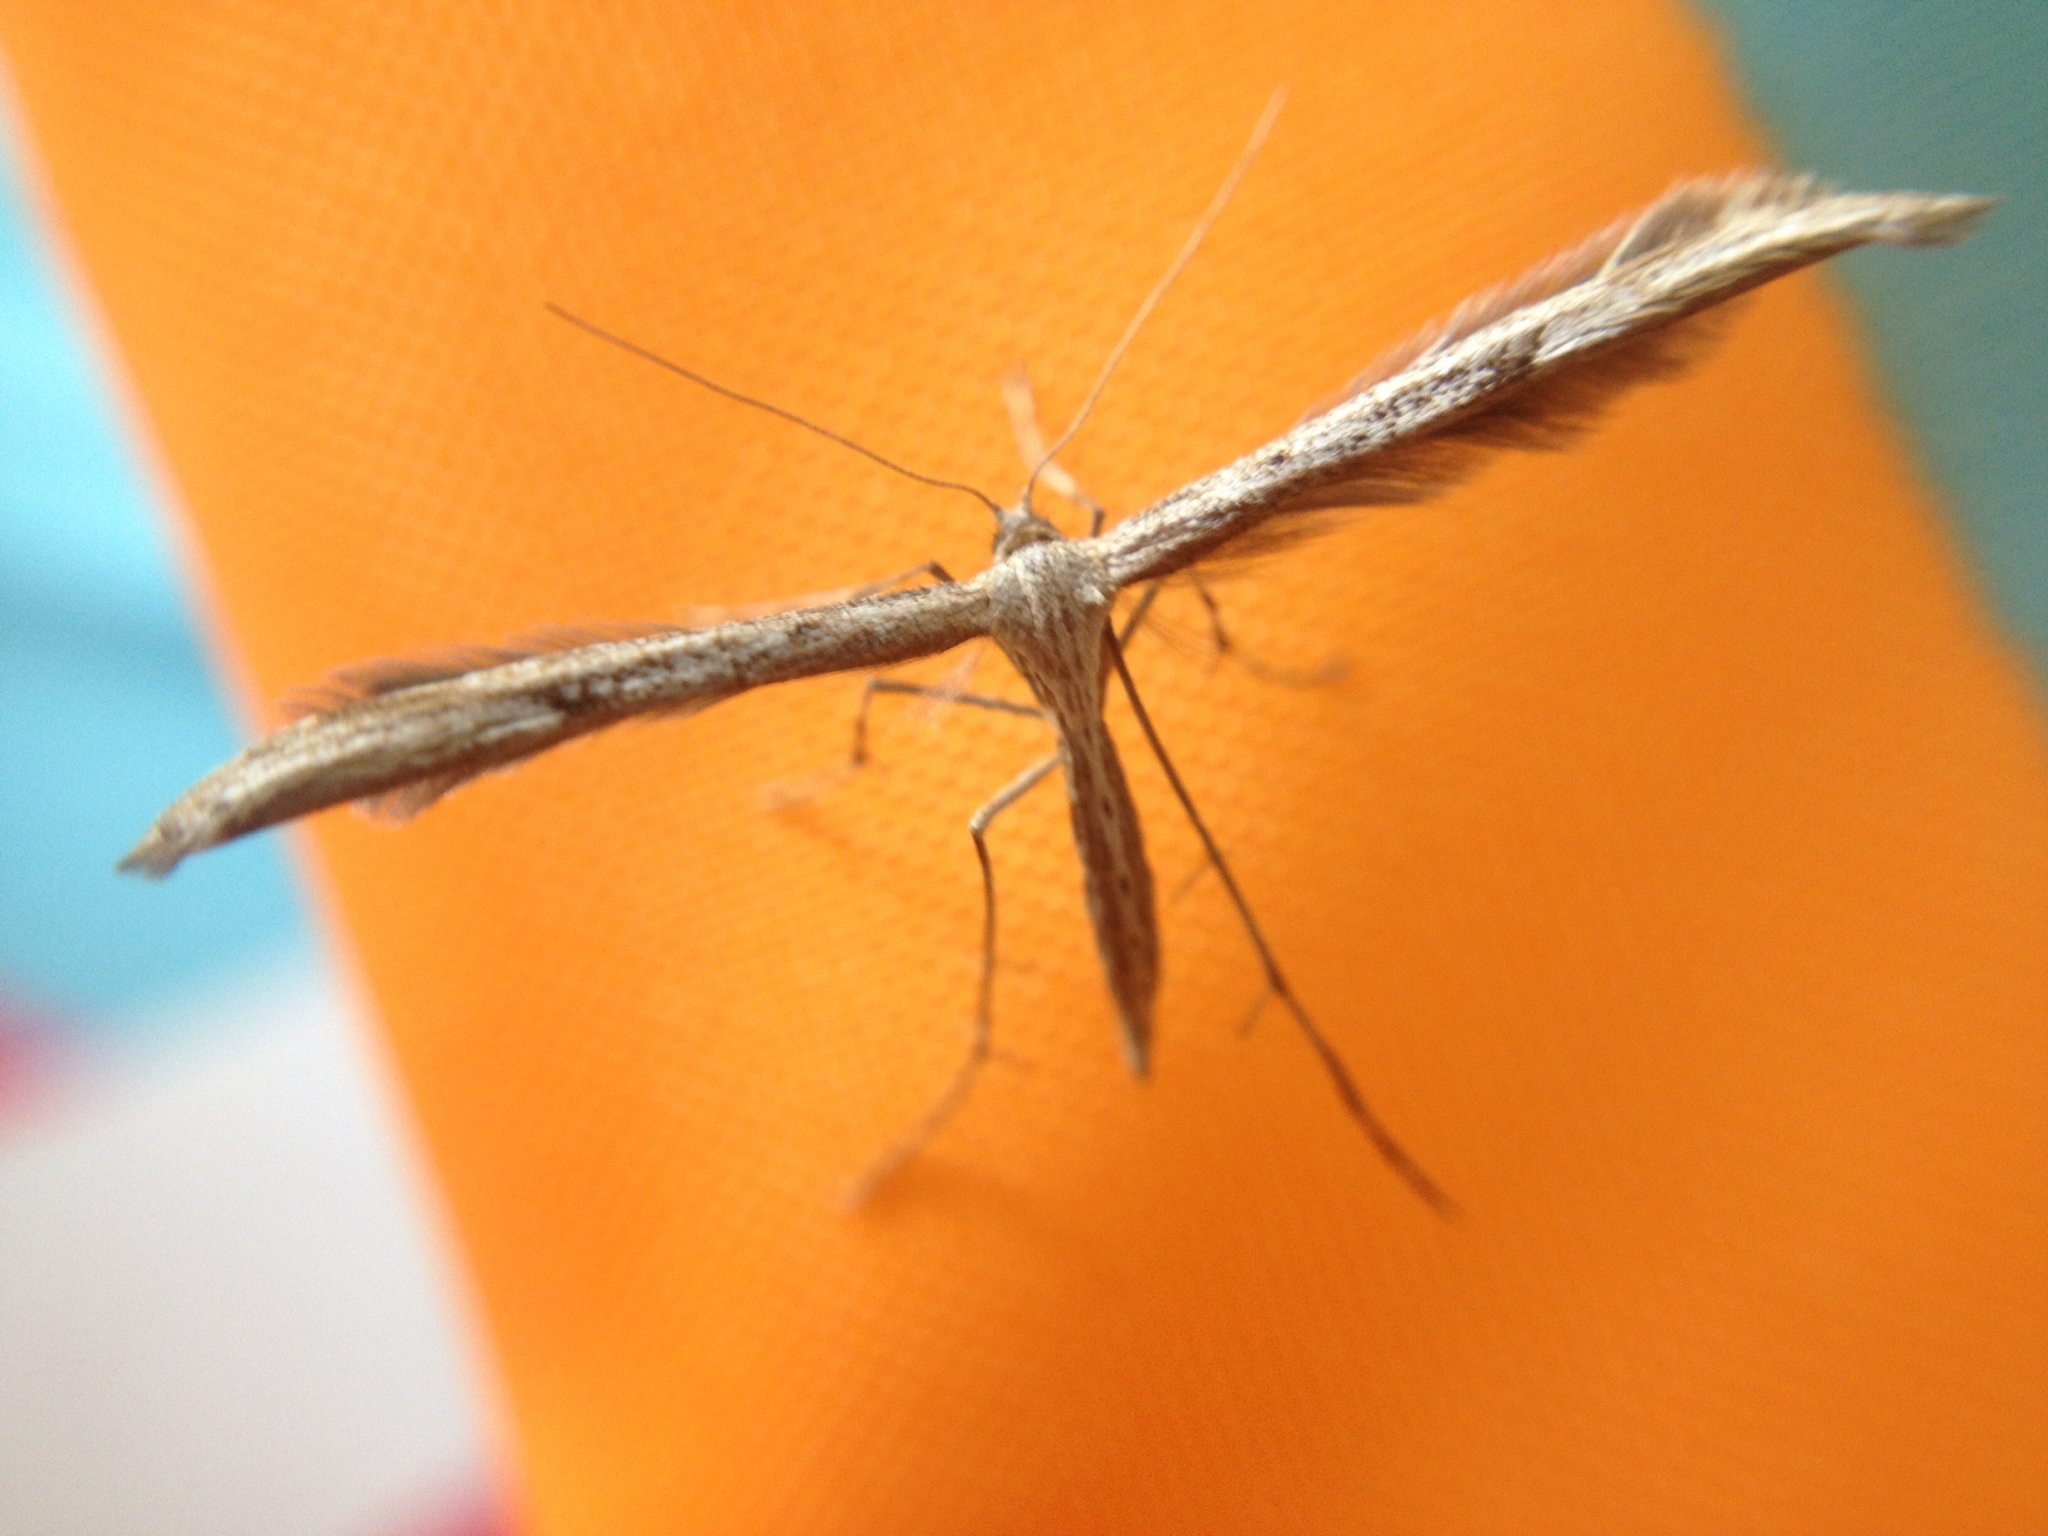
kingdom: Animalia
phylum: Arthropoda
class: Insecta
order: Lepidoptera
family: Pterophoridae
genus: Emmelina
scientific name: Emmelina monodactyla
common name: Common plume
